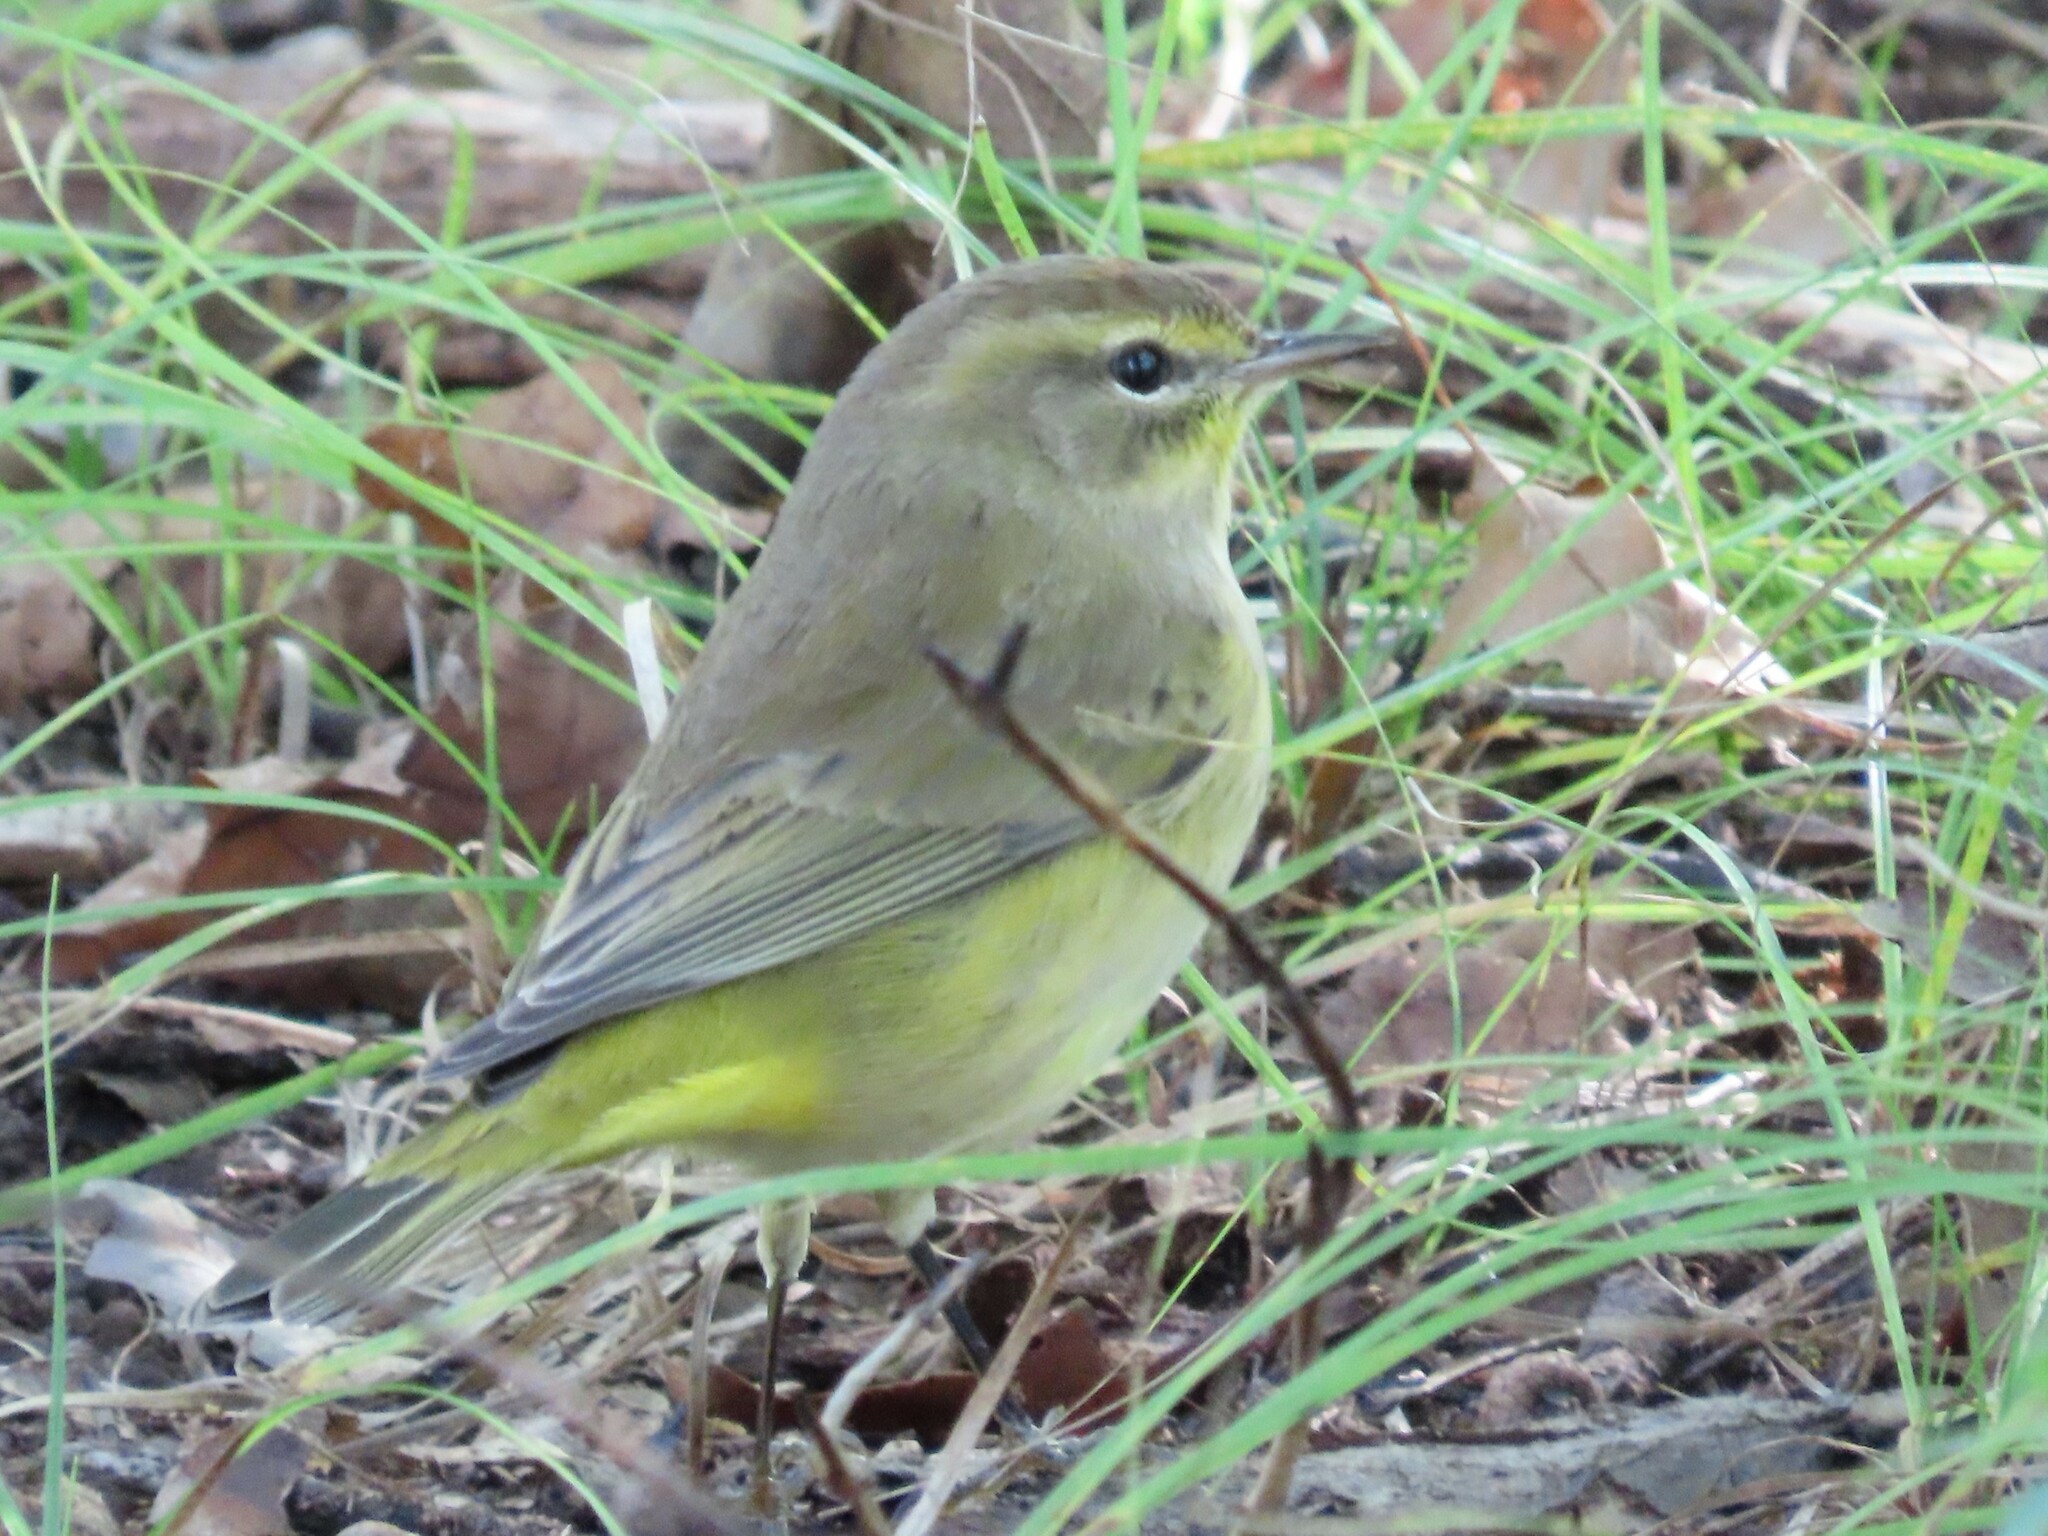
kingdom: Animalia
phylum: Chordata
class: Aves
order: Passeriformes
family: Parulidae
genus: Setophaga
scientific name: Setophaga palmarum
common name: Palm warbler
